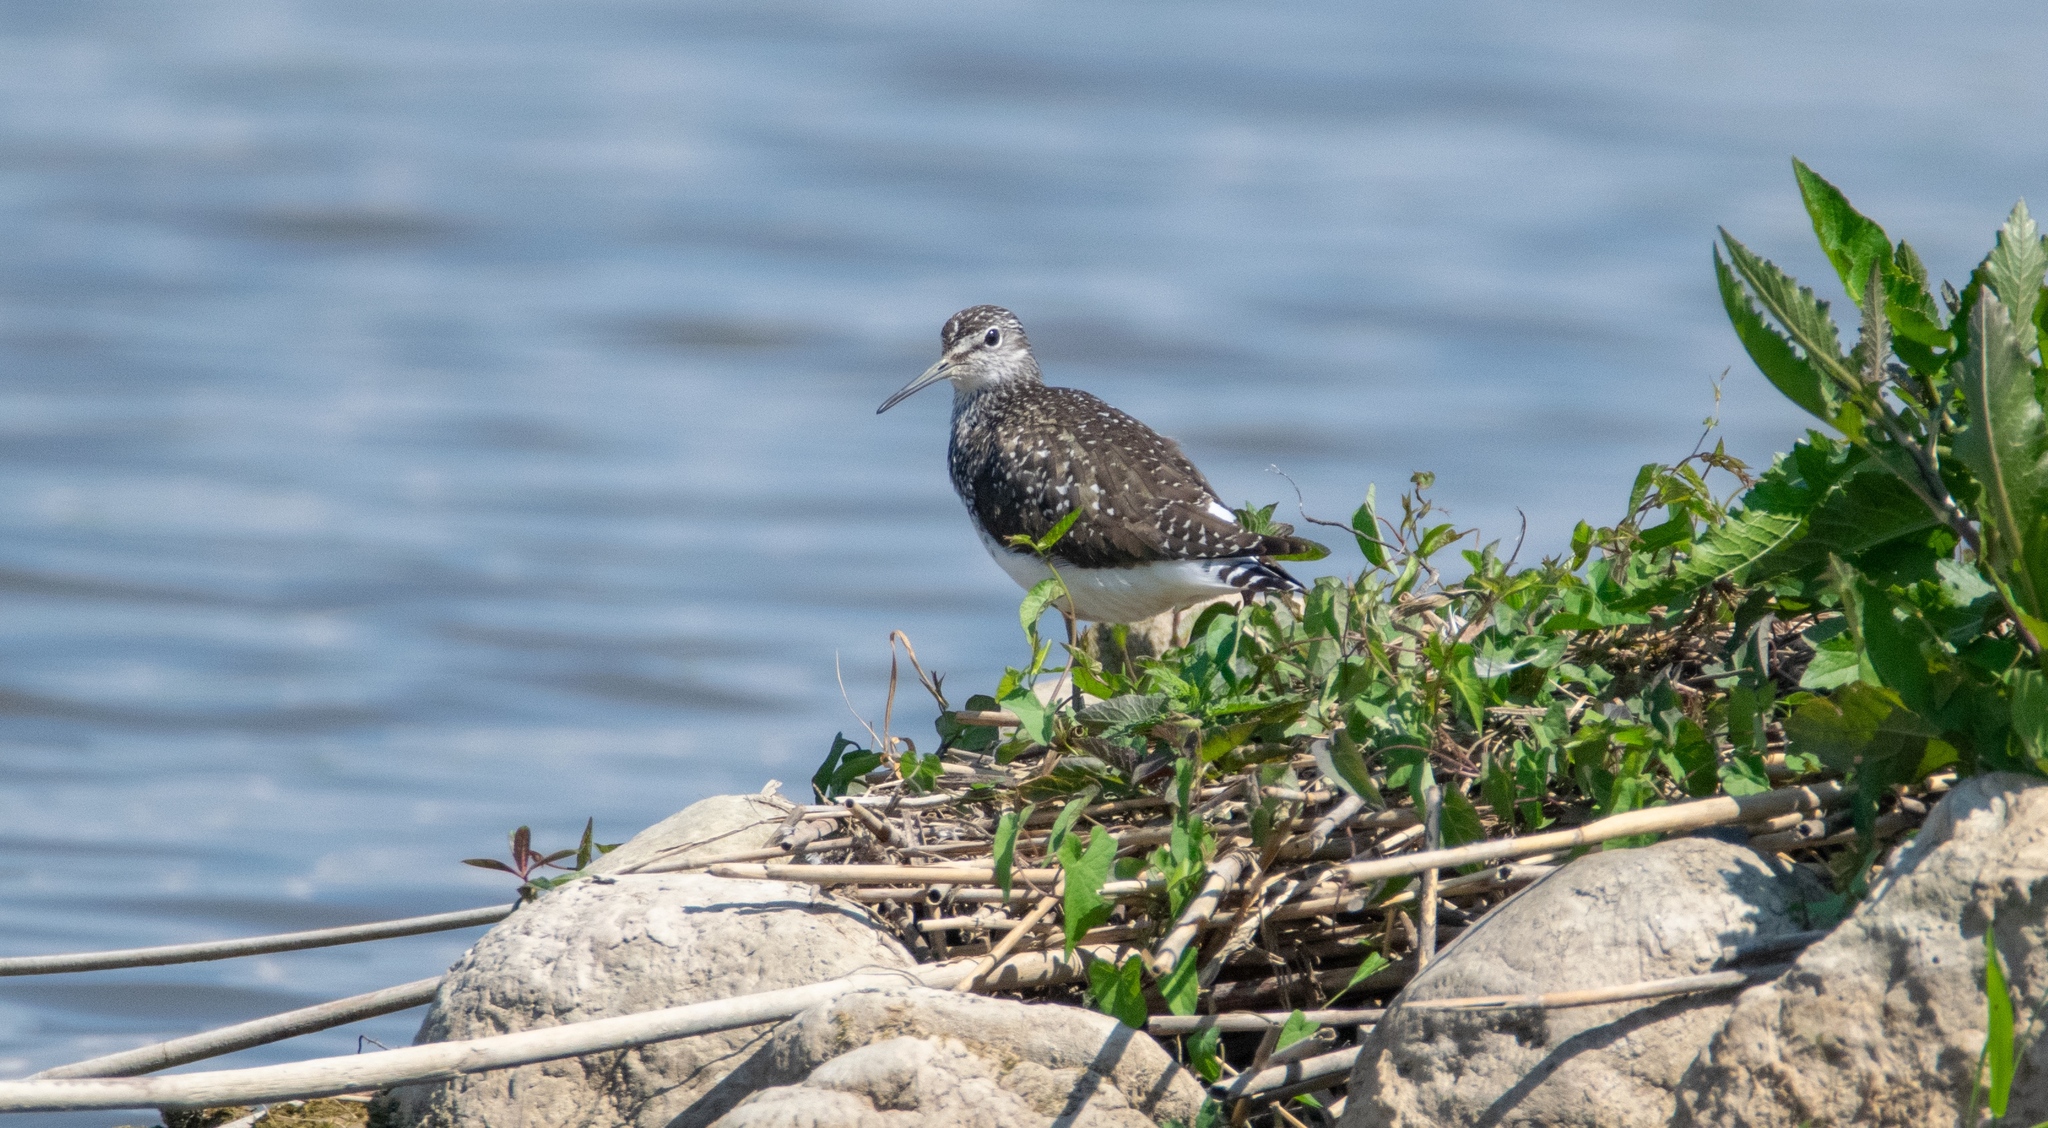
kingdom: Animalia
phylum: Chordata
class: Aves
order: Charadriiformes
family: Scolopacidae
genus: Tringa
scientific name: Tringa ochropus
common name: Green sandpiper
